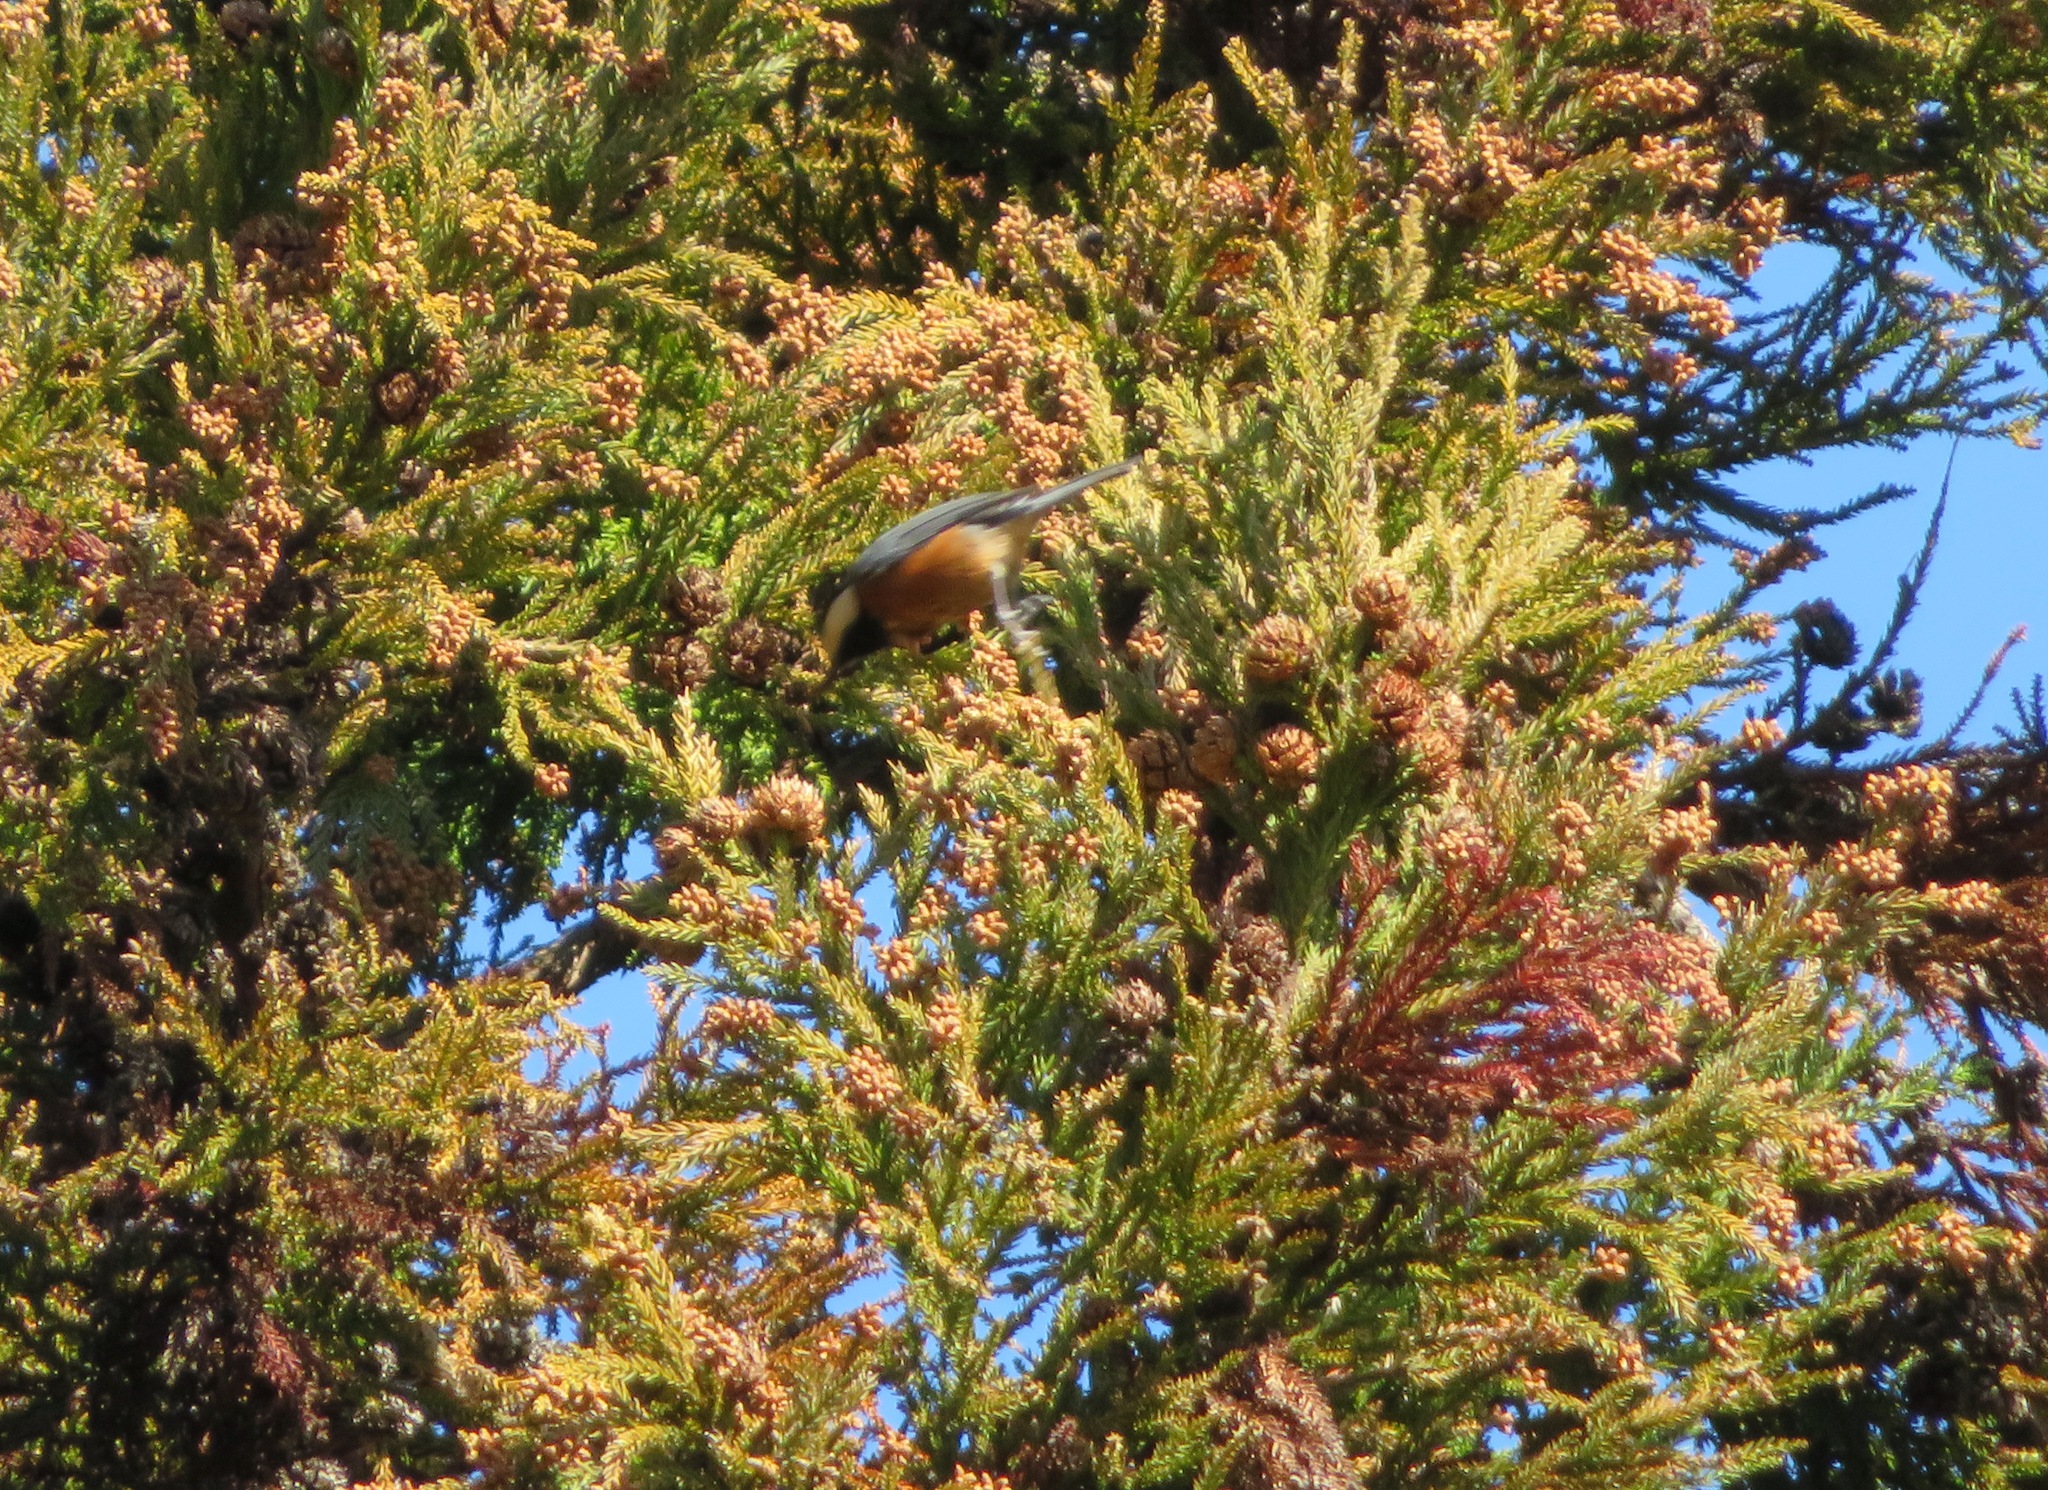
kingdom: Animalia
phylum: Chordata
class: Aves
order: Passeriformes
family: Paridae
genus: Poecile
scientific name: Poecile varius
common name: Varied tit
